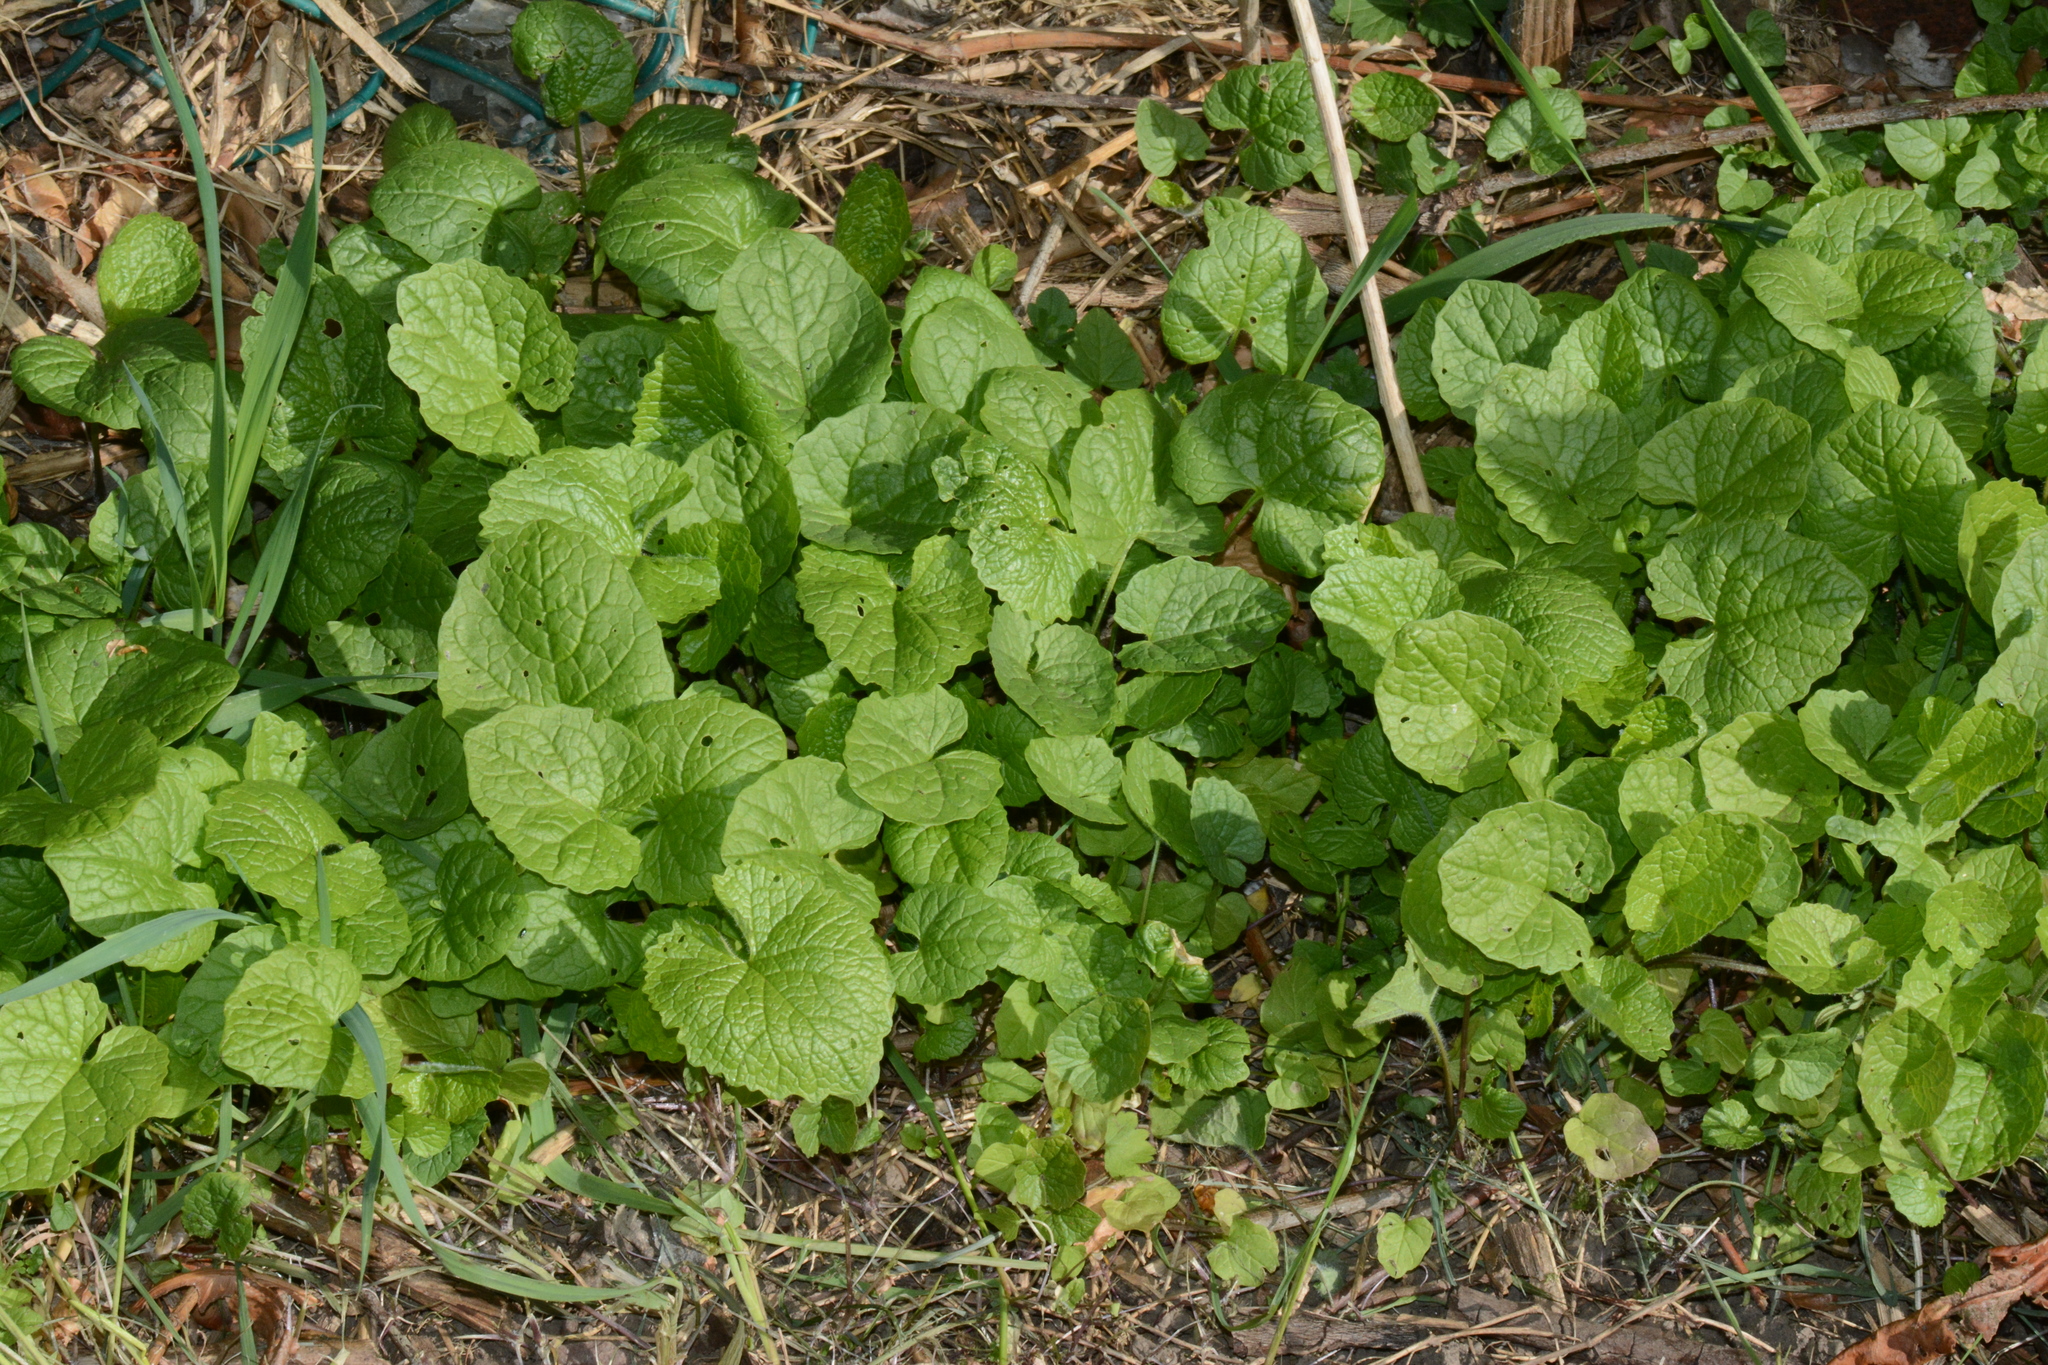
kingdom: Plantae
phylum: Tracheophyta
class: Magnoliopsida
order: Brassicales
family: Brassicaceae
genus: Alliaria
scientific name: Alliaria petiolata
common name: Garlic mustard
